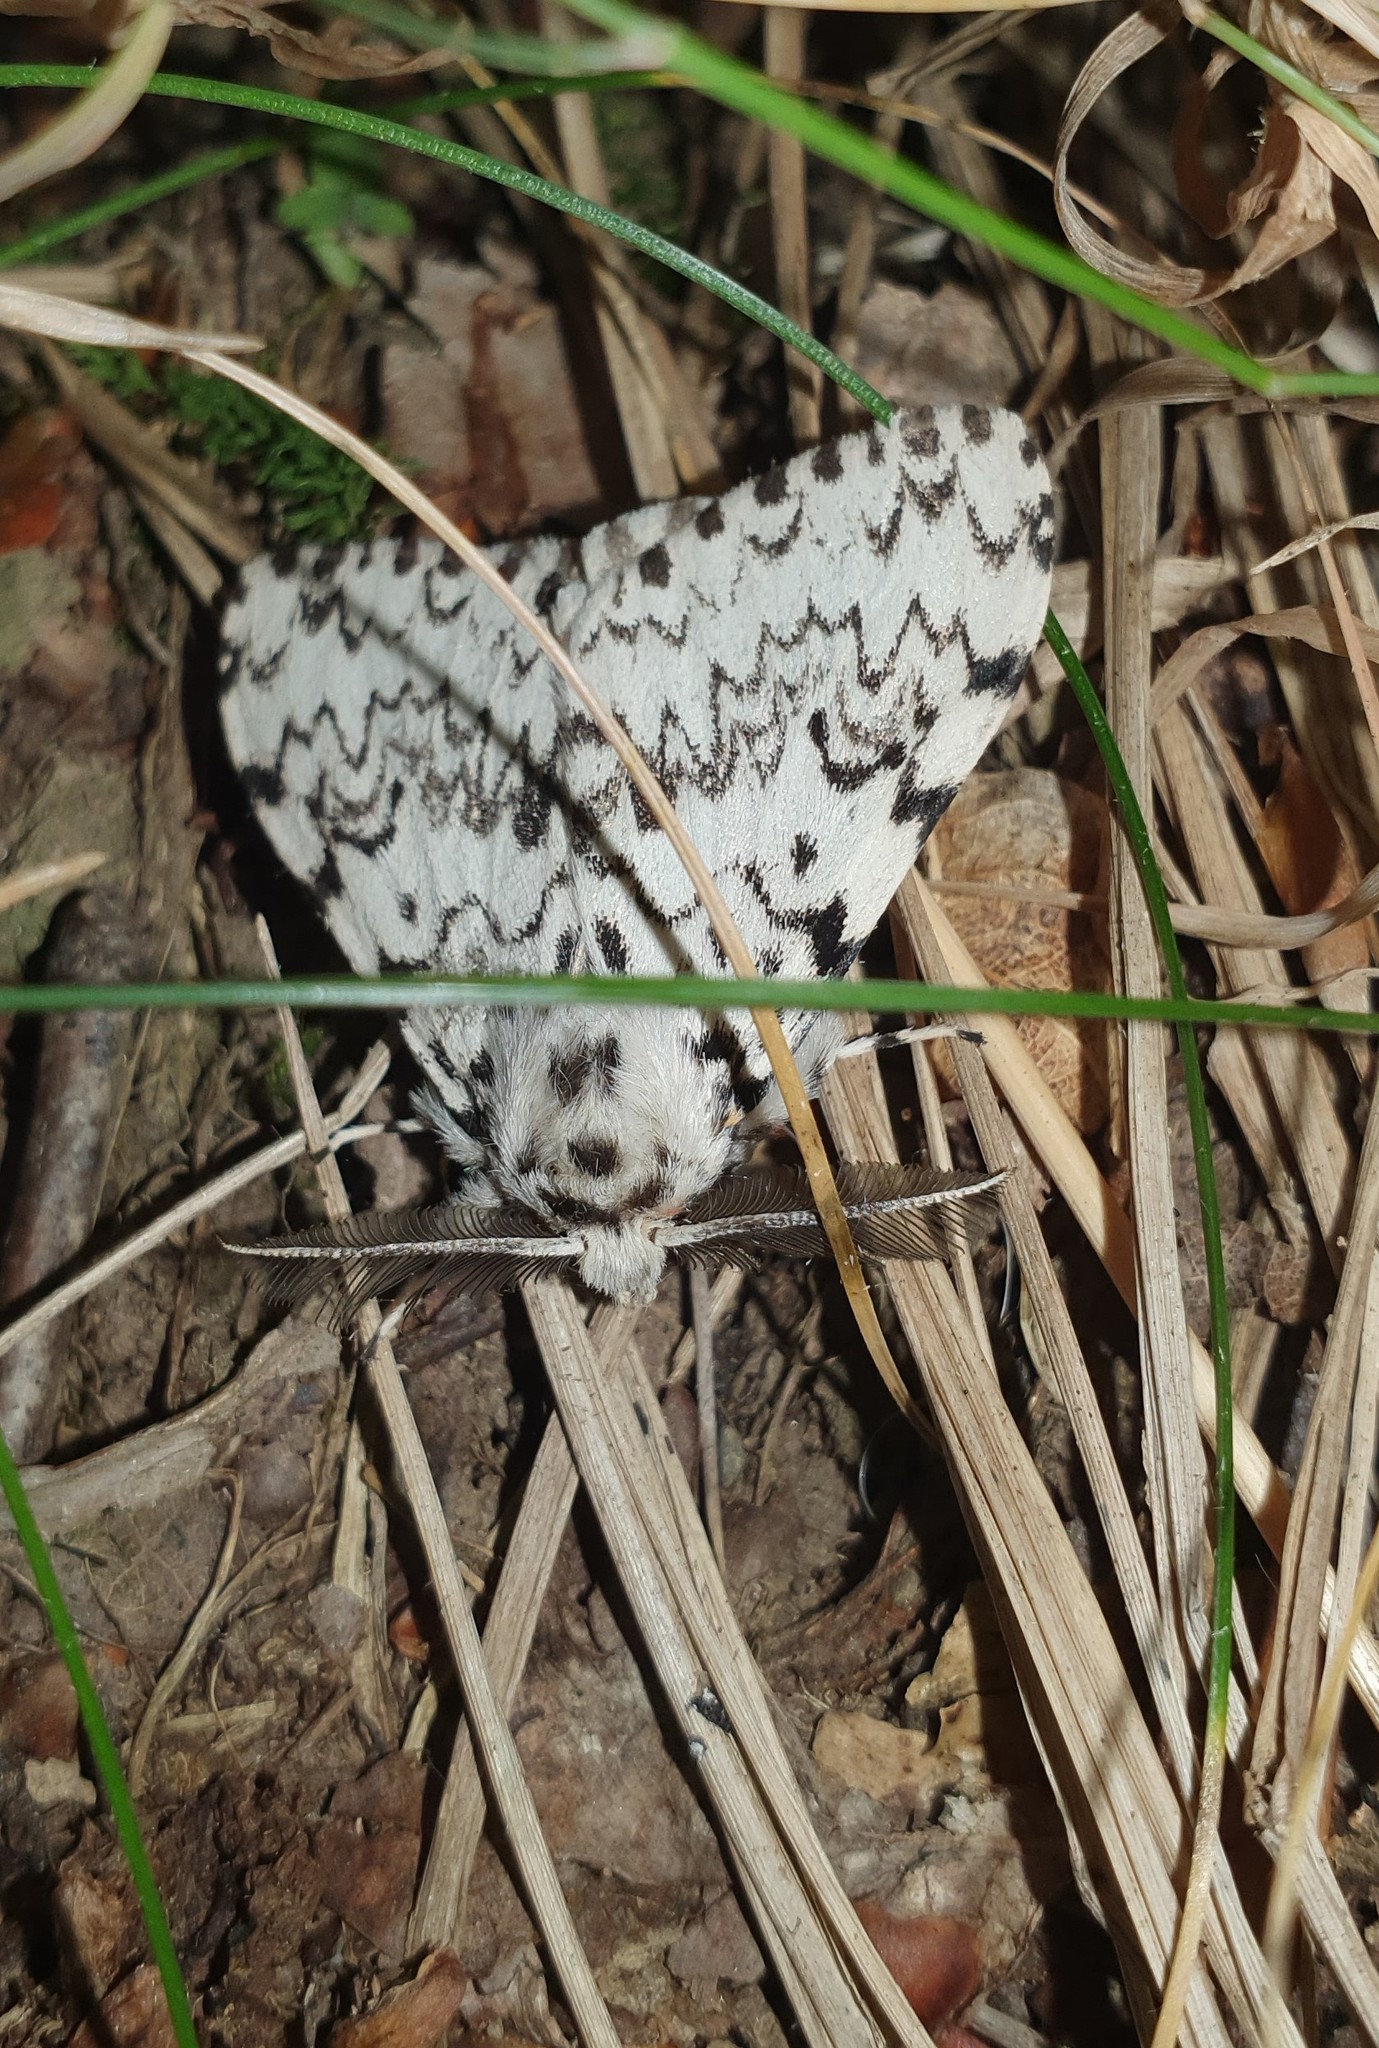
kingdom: Animalia
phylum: Arthropoda
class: Insecta
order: Lepidoptera
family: Erebidae
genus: Lymantria
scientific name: Lymantria monacha
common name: Black arches
